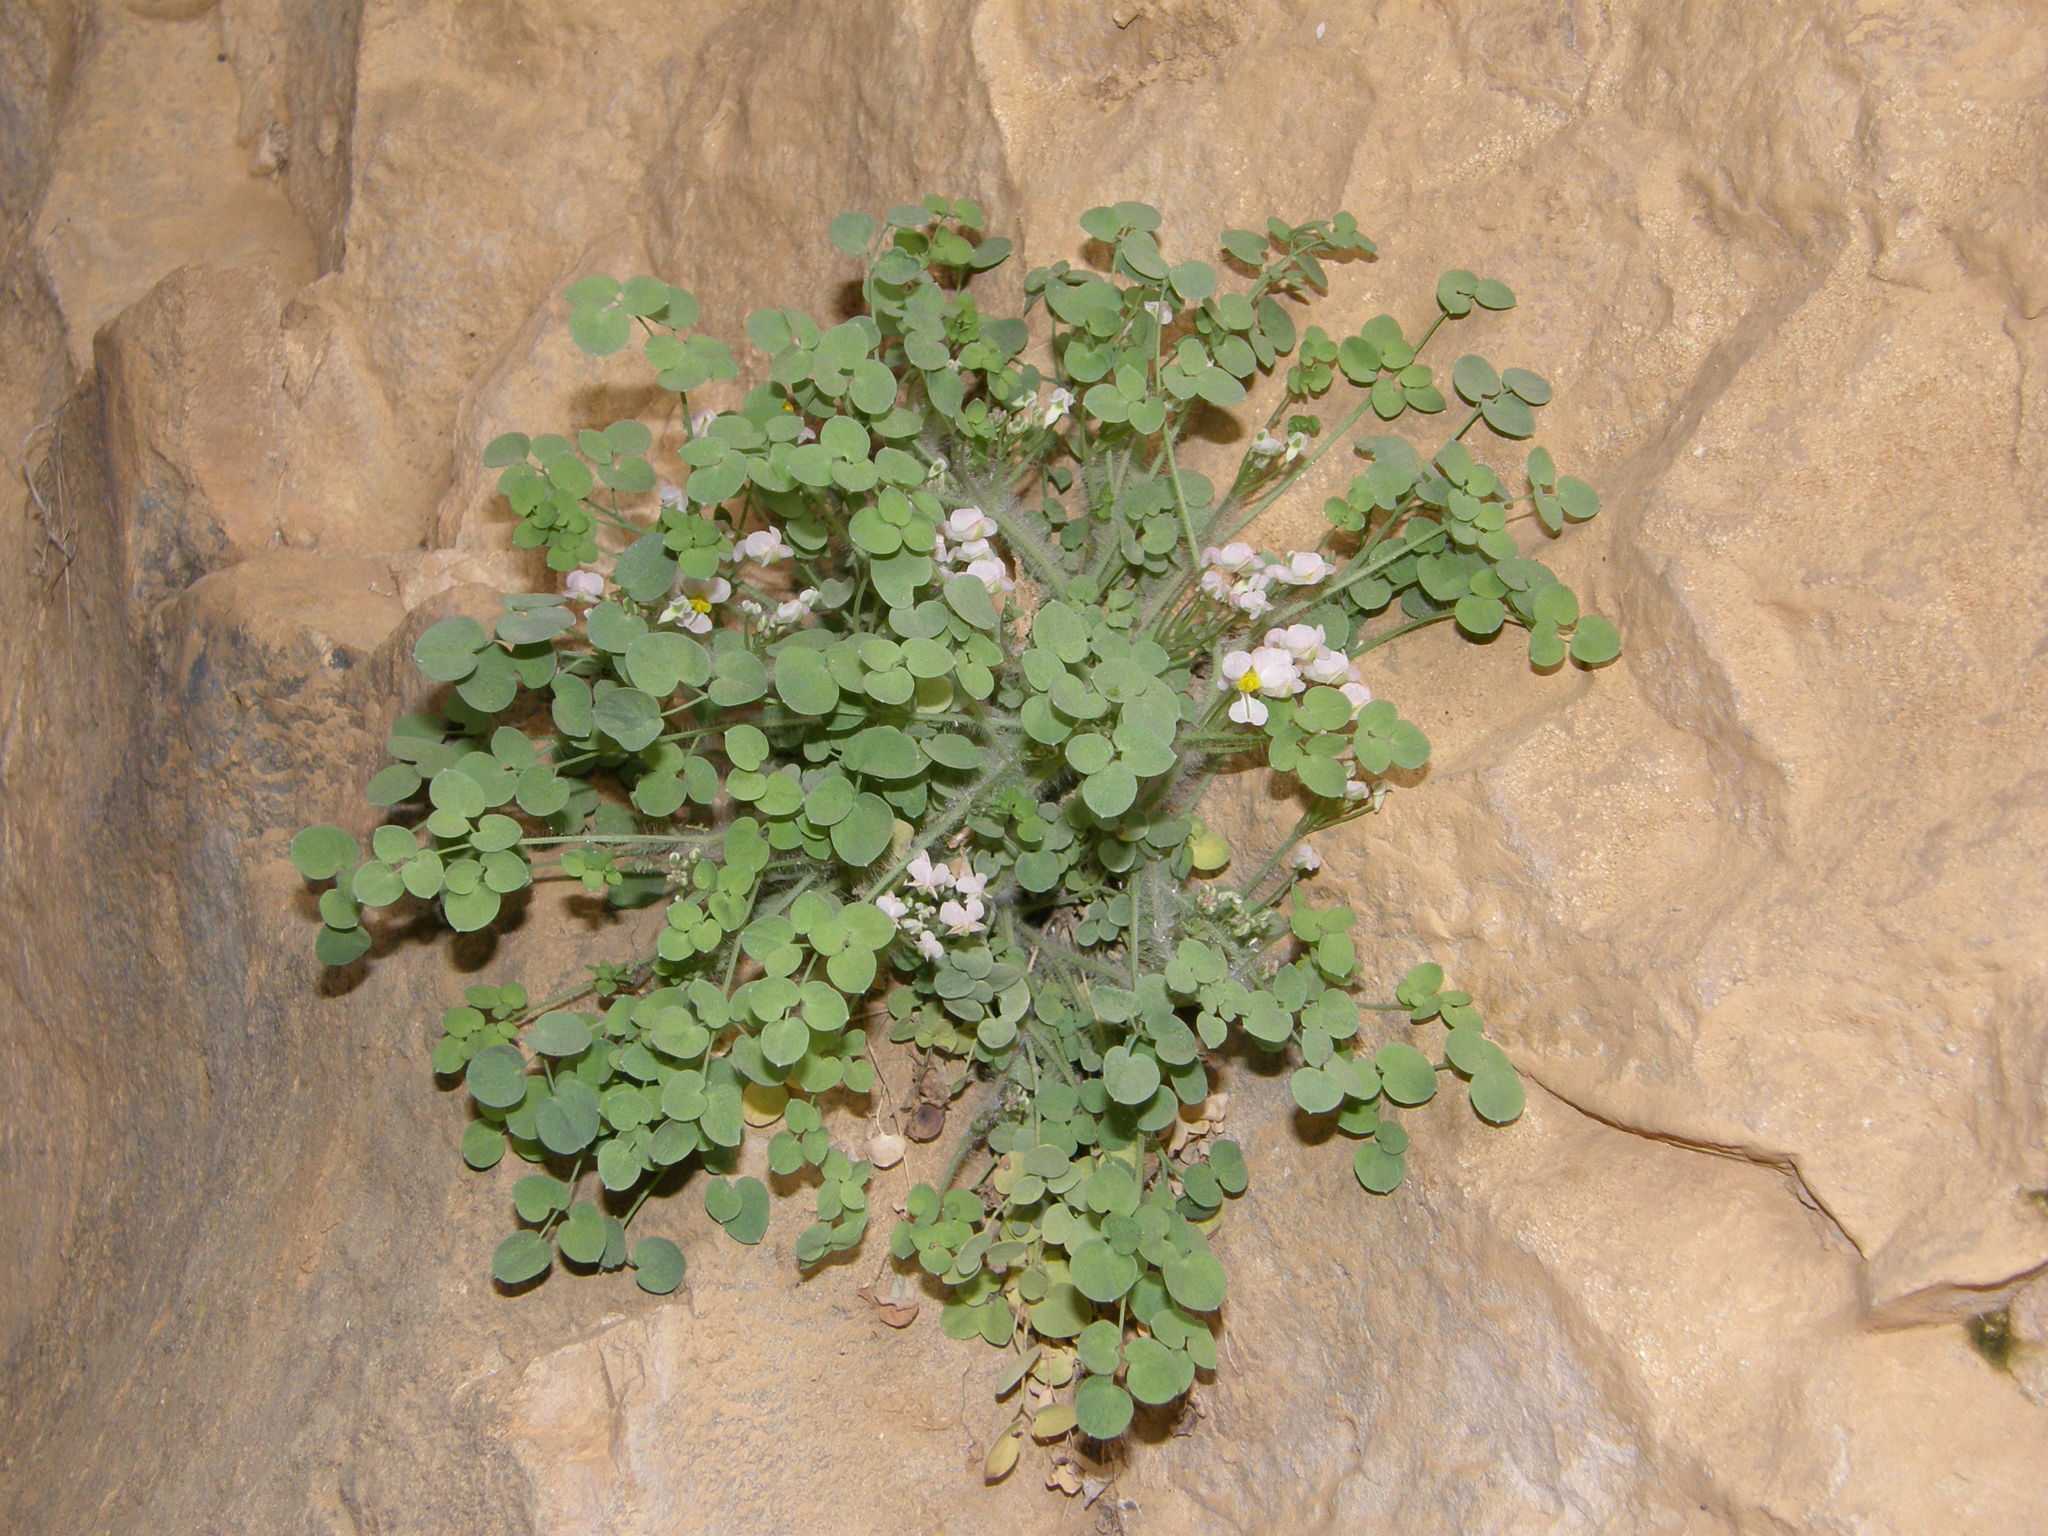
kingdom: Plantae
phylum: Tracheophyta
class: Magnoliopsida
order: Ranunculales
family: Papaveraceae
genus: Sarcocapnos
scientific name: Sarcocapnos enneaphylla
